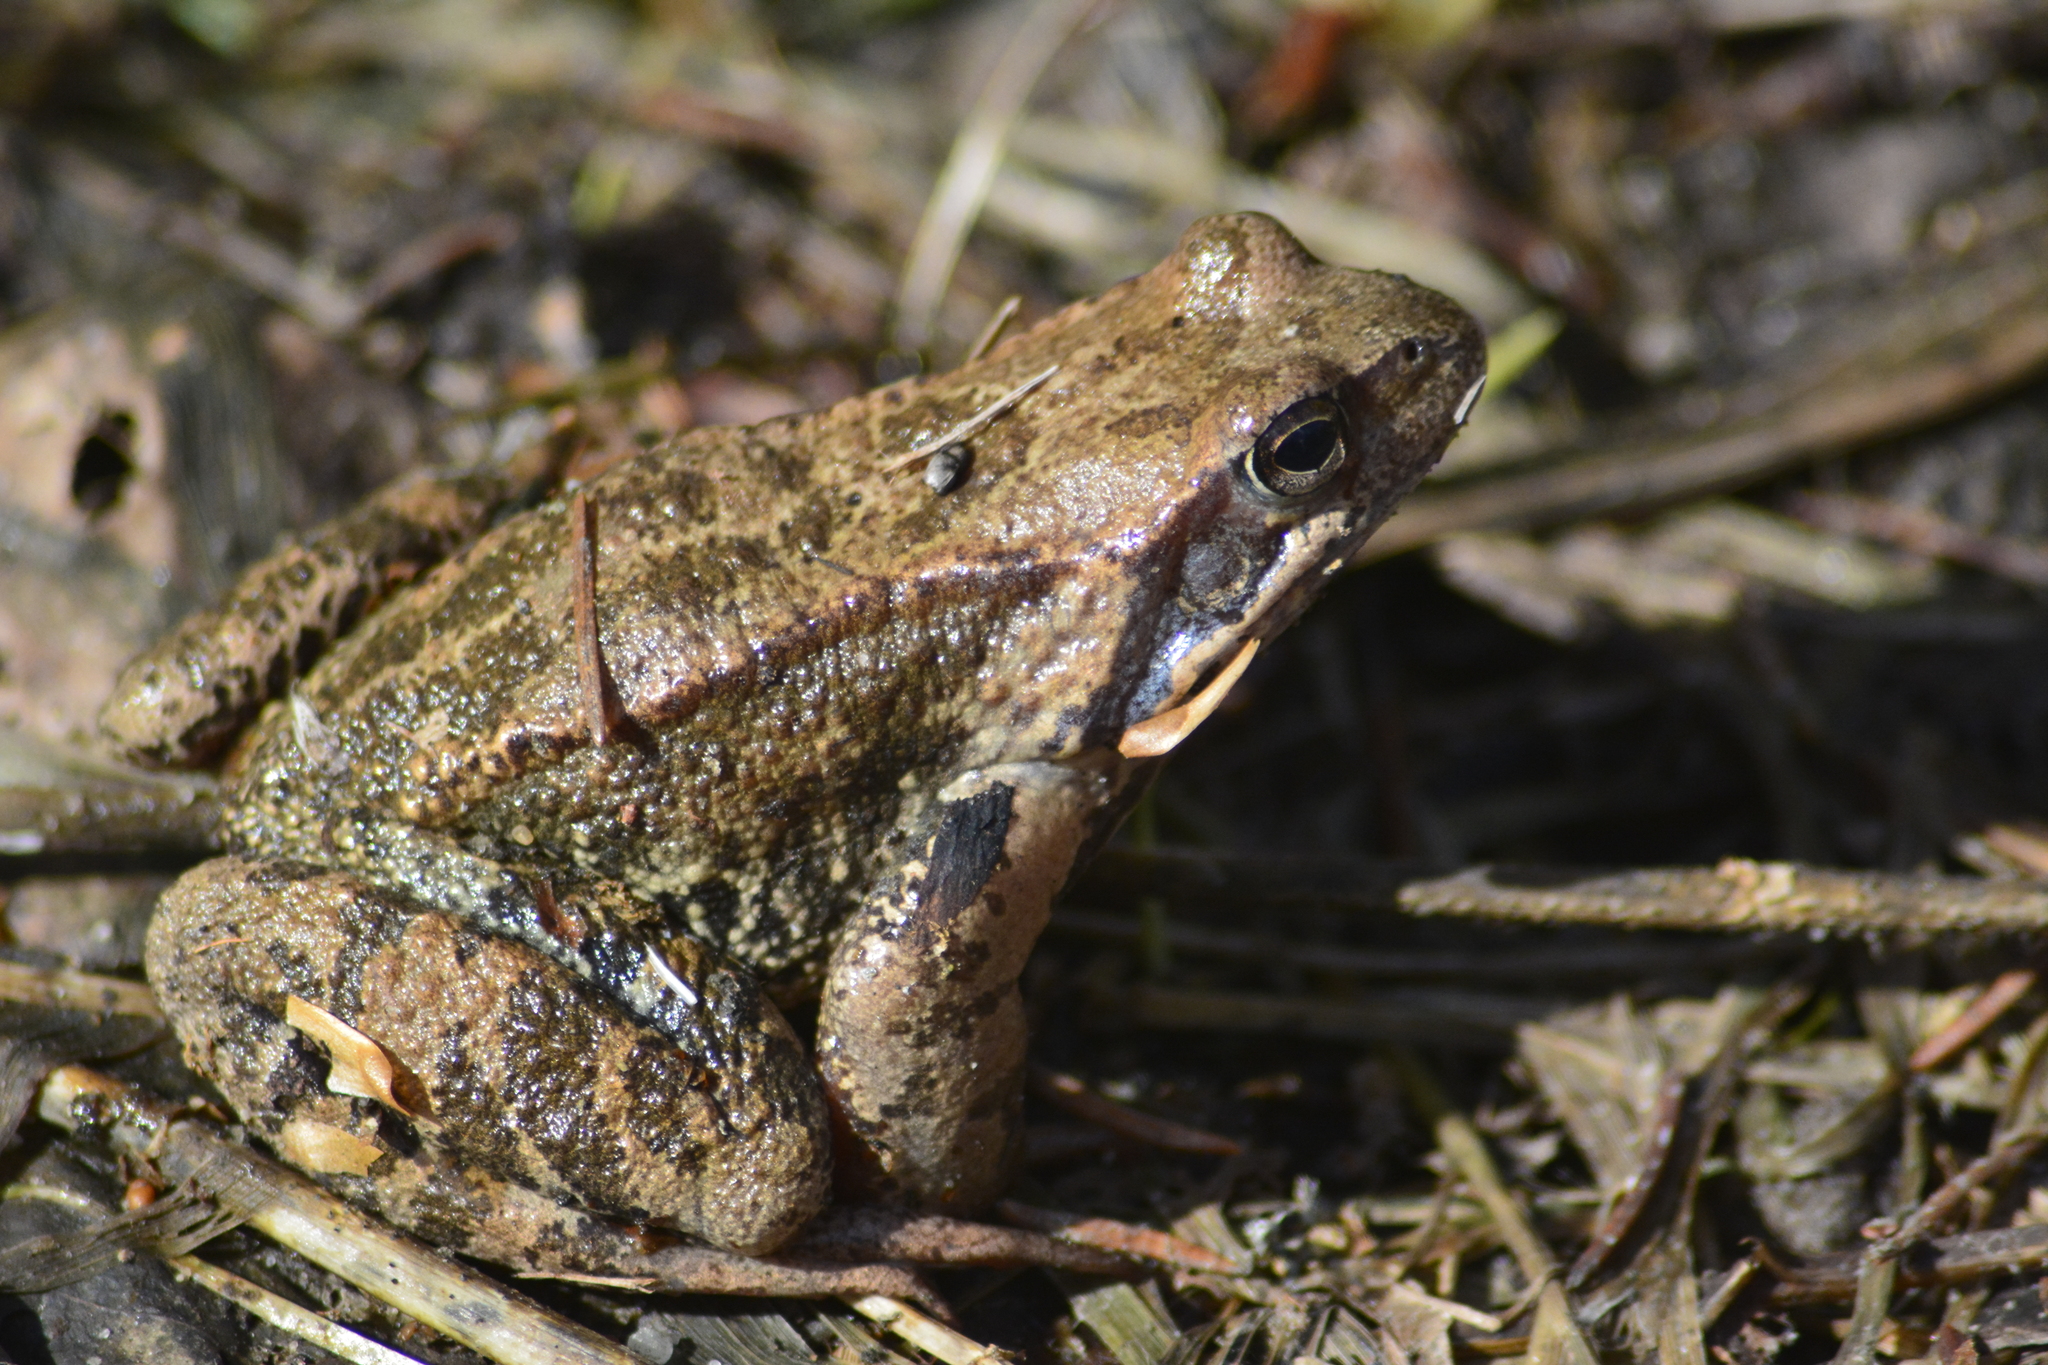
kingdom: Animalia
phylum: Chordata
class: Amphibia
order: Anura
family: Ranidae
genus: Rana
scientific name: Rana temporaria
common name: Common frog
